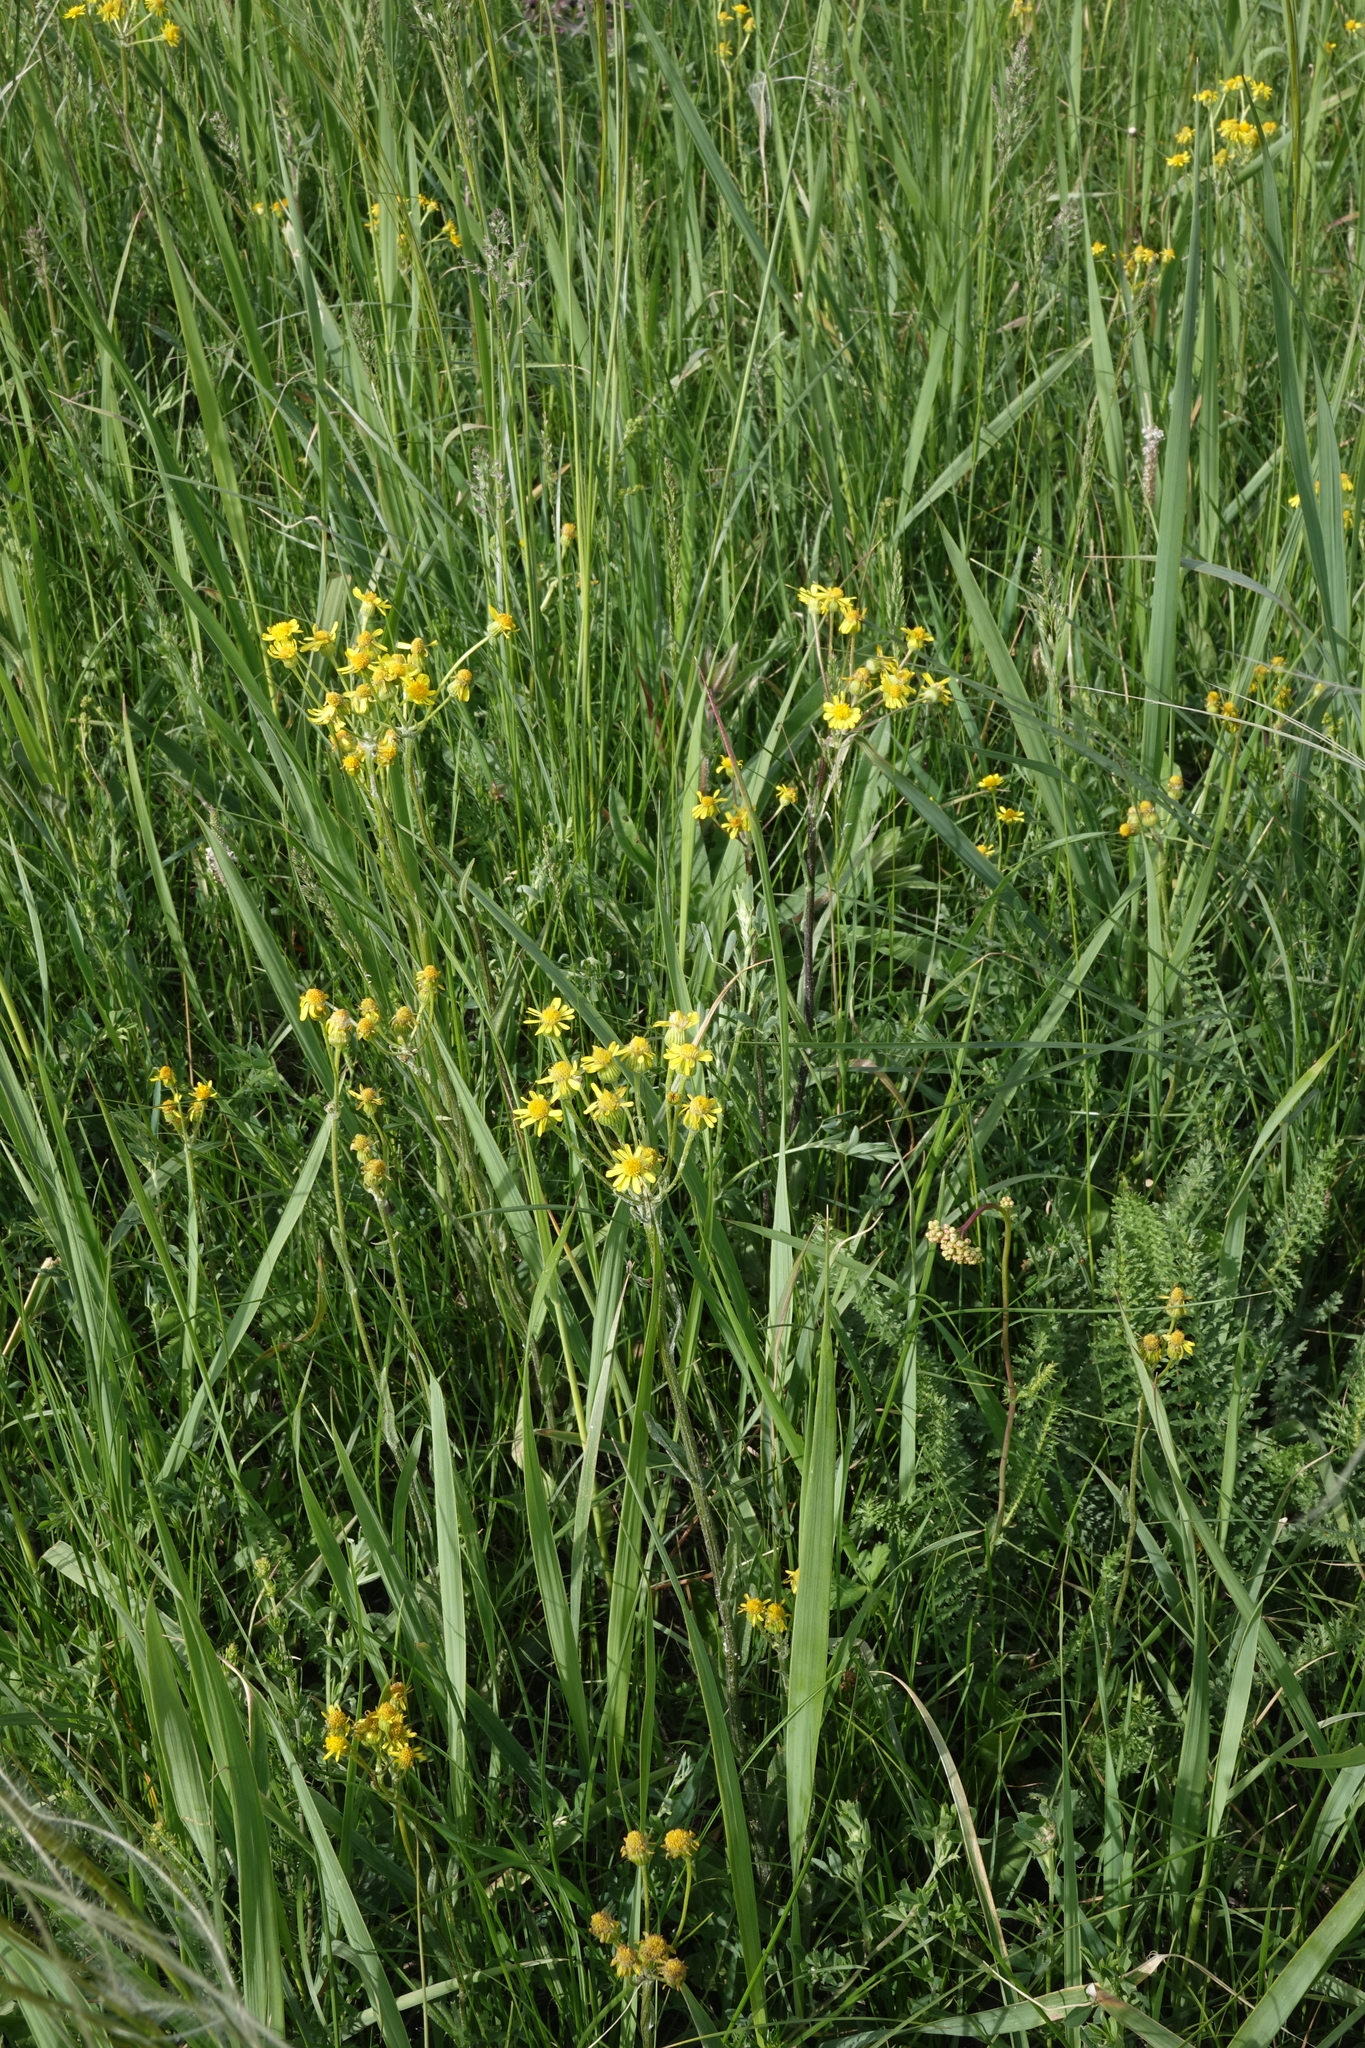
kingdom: Plantae
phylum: Tracheophyta
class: Magnoliopsida
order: Asterales
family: Asteraceae
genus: Tephroseris
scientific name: Tephroseris integrifolia
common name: Field fleawort
